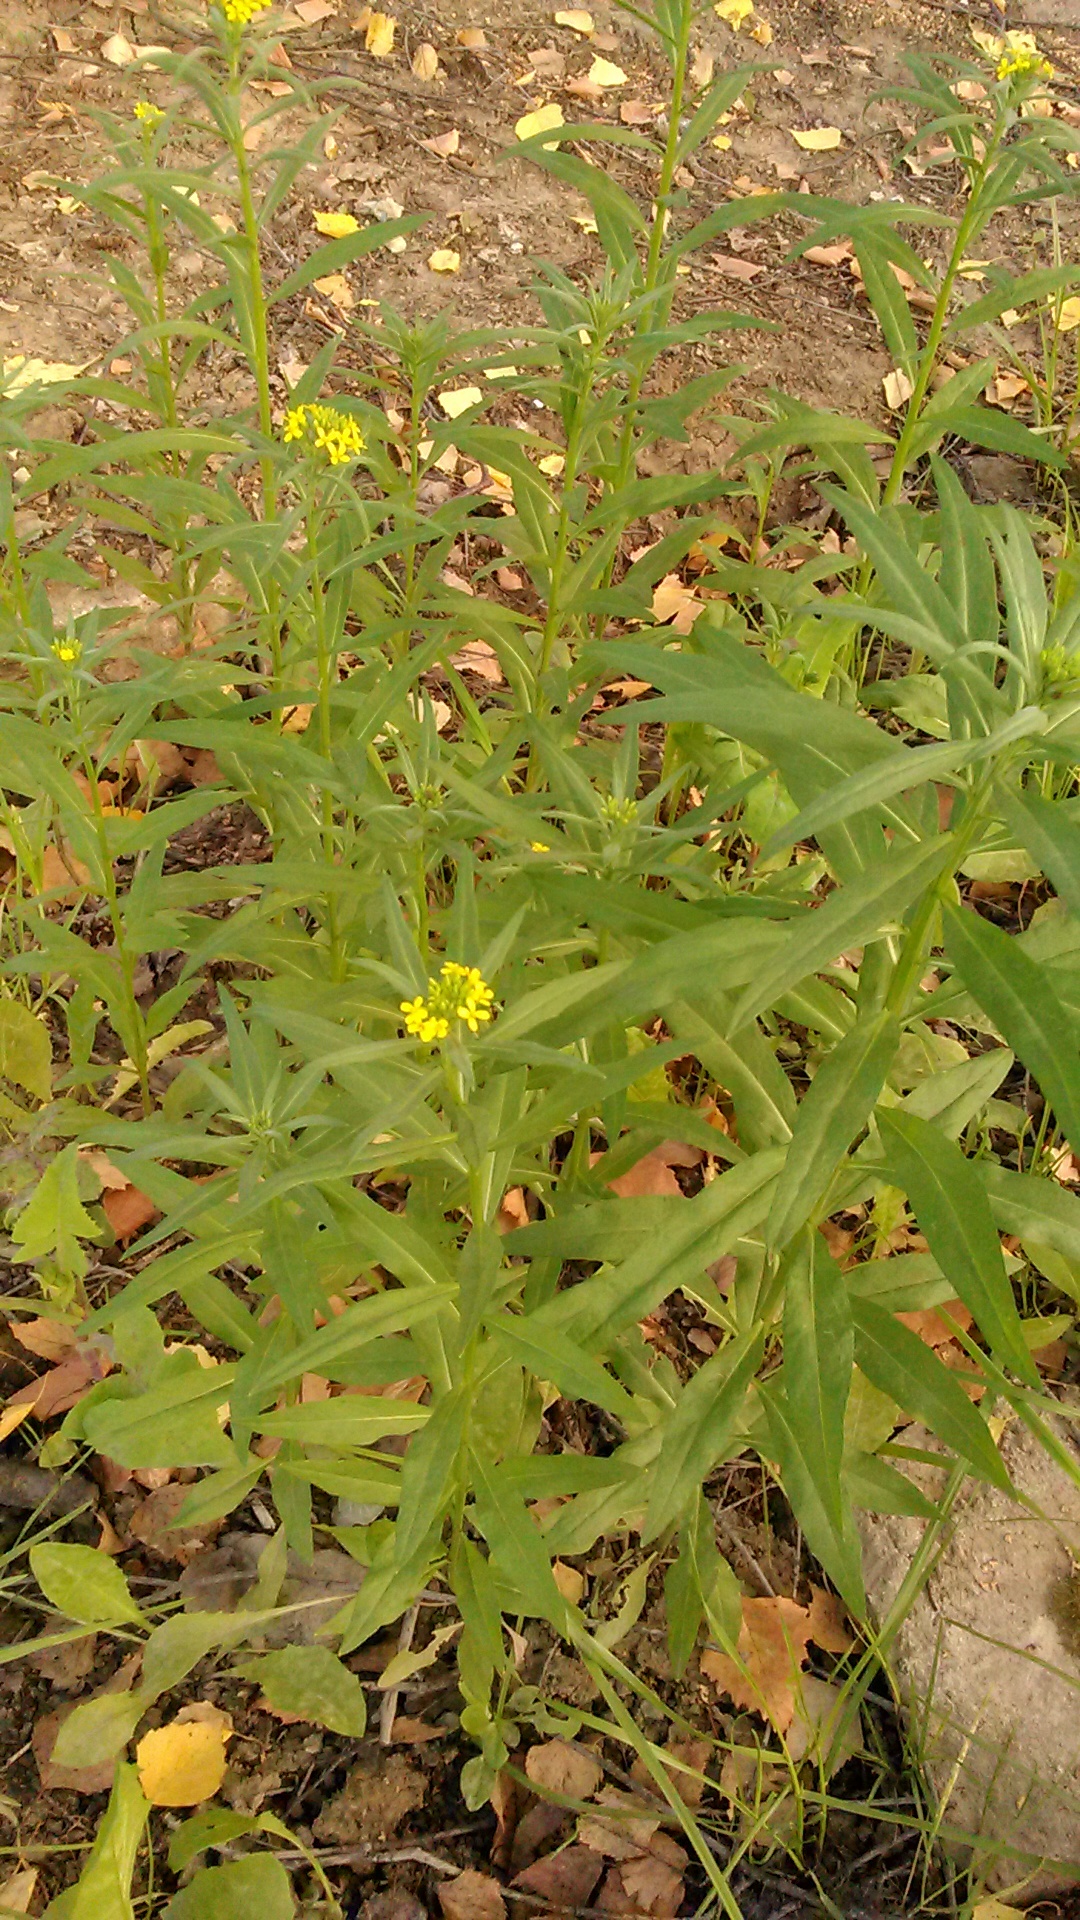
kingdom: Plantae
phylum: Tracheophyta
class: Magnoliopsida
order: Brassicales
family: Brassicaceae
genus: Erysimum
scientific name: Erysimum cheiranthoides
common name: Treacle mustard
